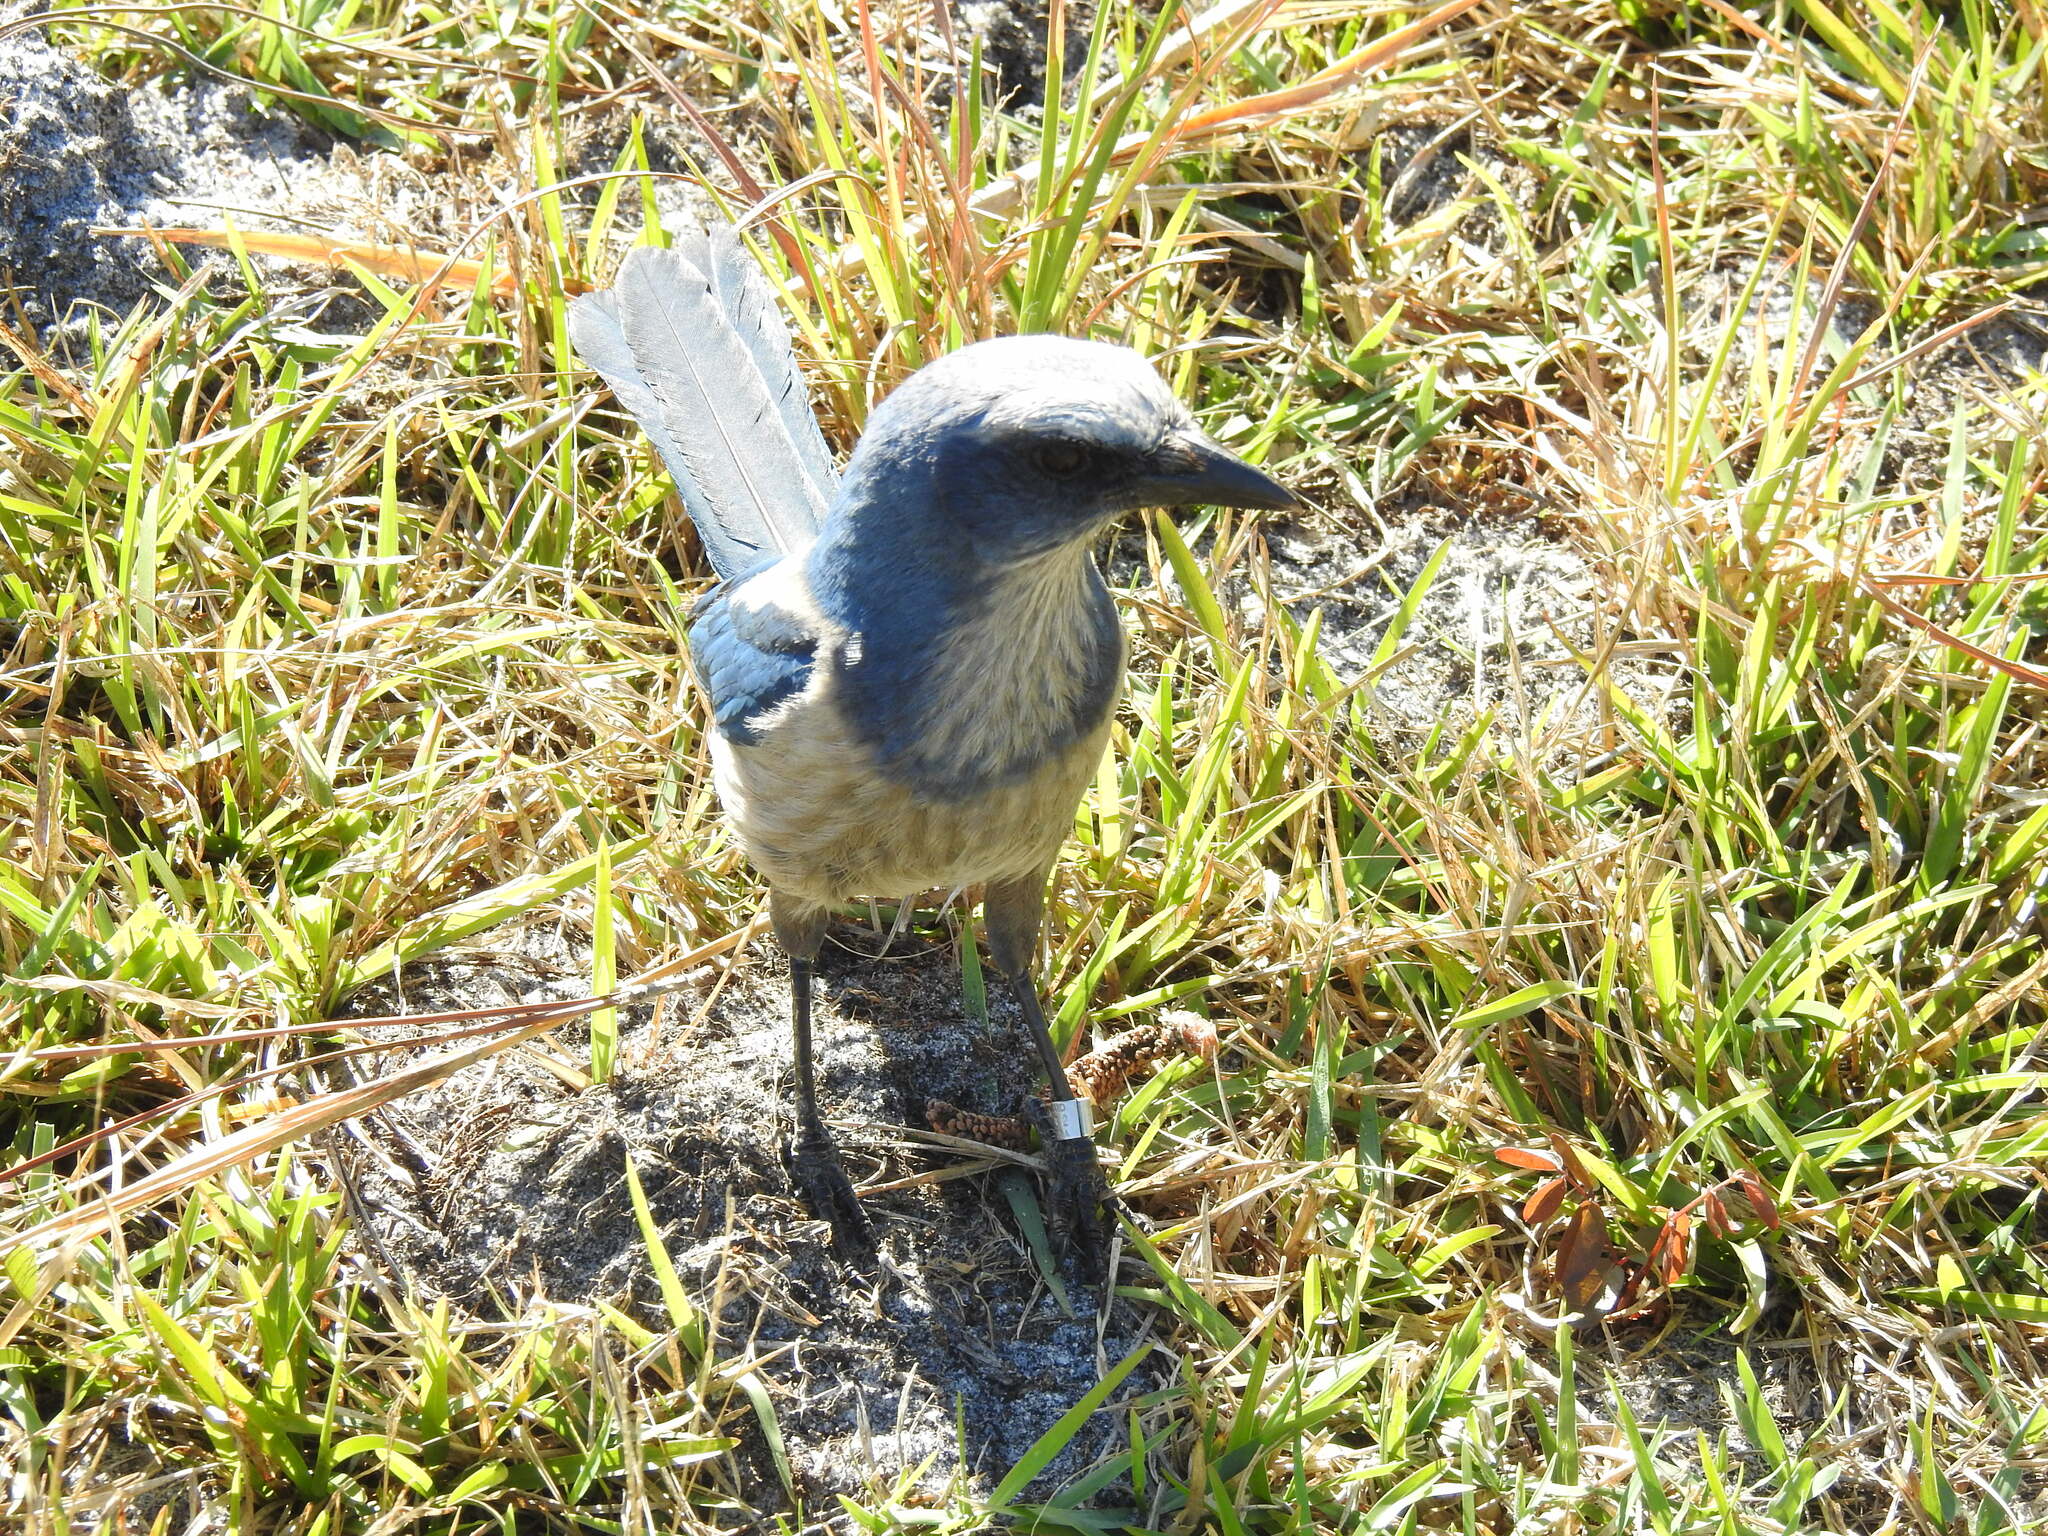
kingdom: Animalia
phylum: Chordata
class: Aves
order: Passeriformes
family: Corvidae
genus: Aphelocoma
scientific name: Aphelocoma coerulescens
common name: Florida scrub jay
